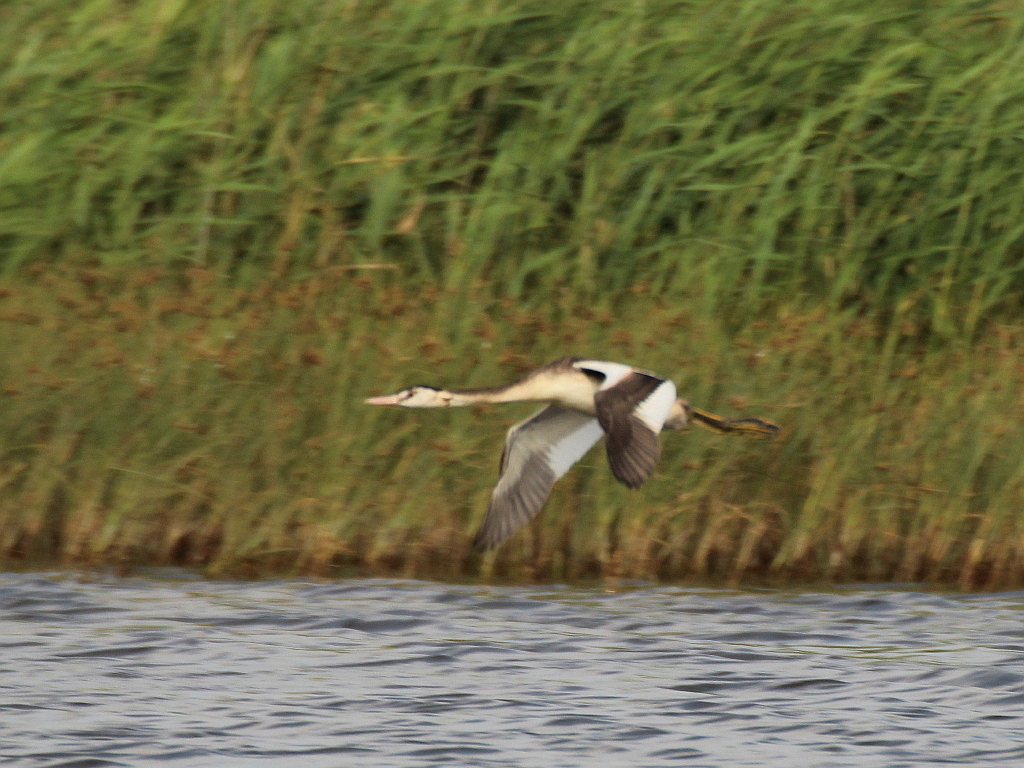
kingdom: Animalia
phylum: Chordata
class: Aves
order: Podicipediformes
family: Podicipedidae
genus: Podiceps
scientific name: Podiceps cristatus
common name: Great crested grebe
